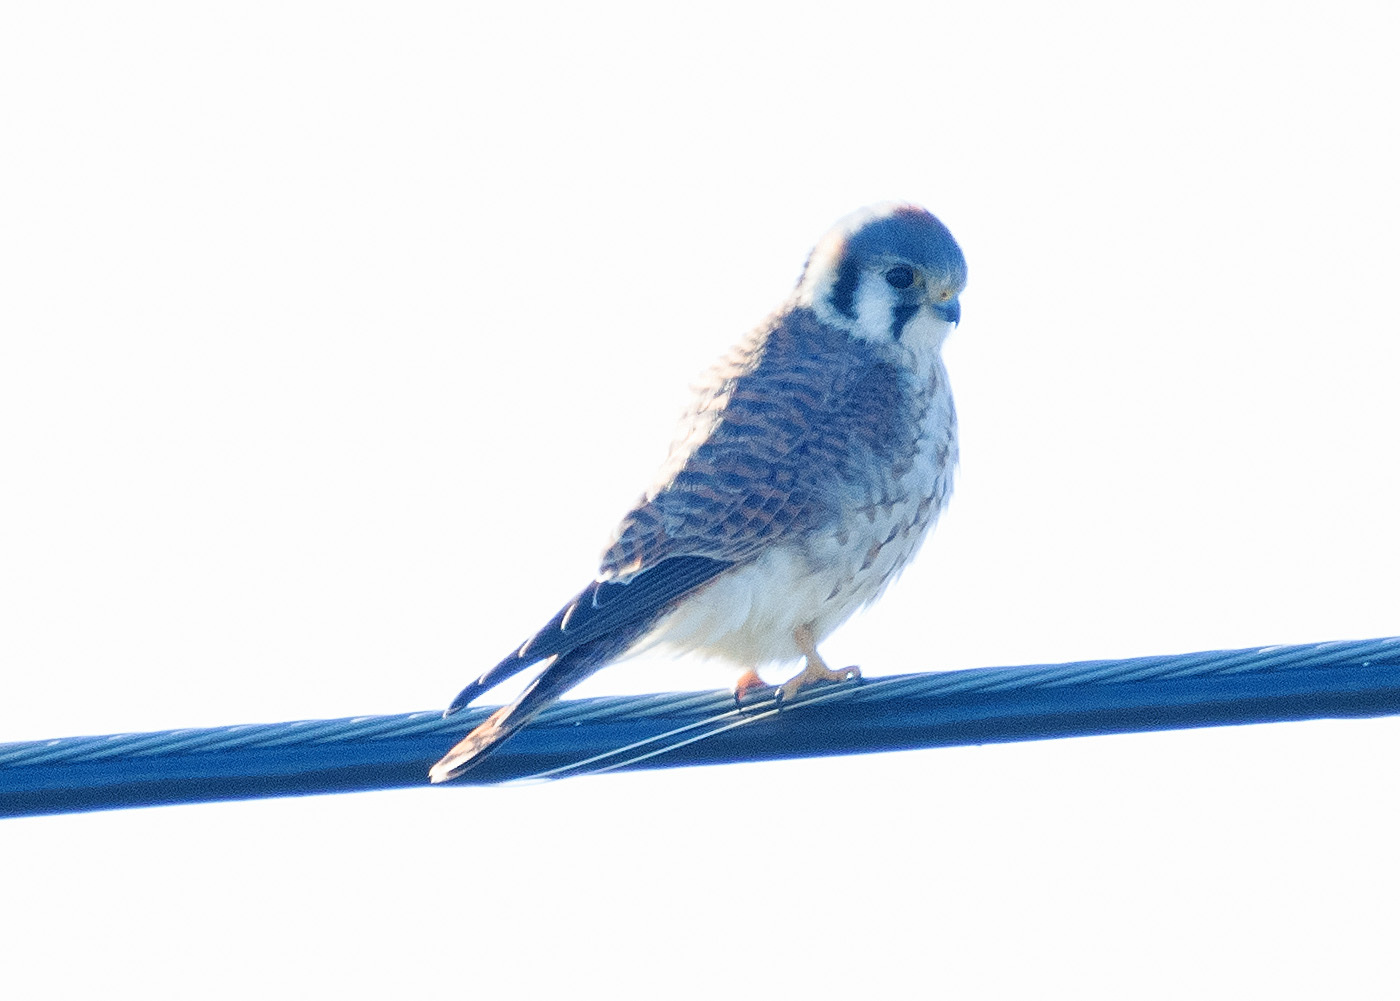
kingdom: Animalia
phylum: Chordata
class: Aves
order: Falconiformes
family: Falconidae
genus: Falco
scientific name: Falco sparverius
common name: American kestrel
